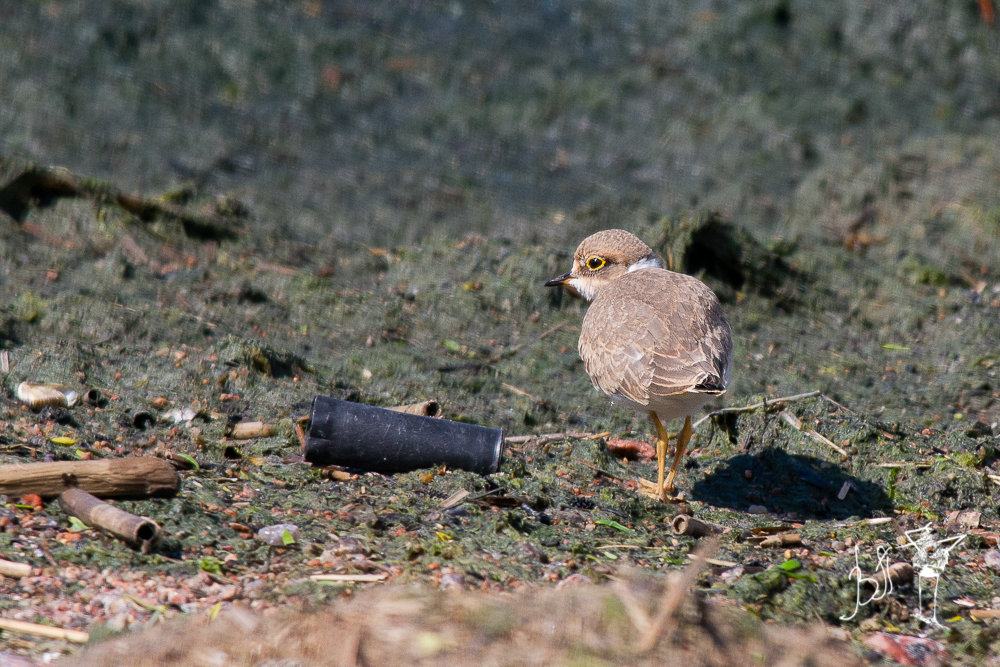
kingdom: Animalia
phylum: Chordata
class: Aves
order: Charadriiformes
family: Charadriidae
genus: Charadrius
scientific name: Charadrius dubius
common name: Little ringed plover
